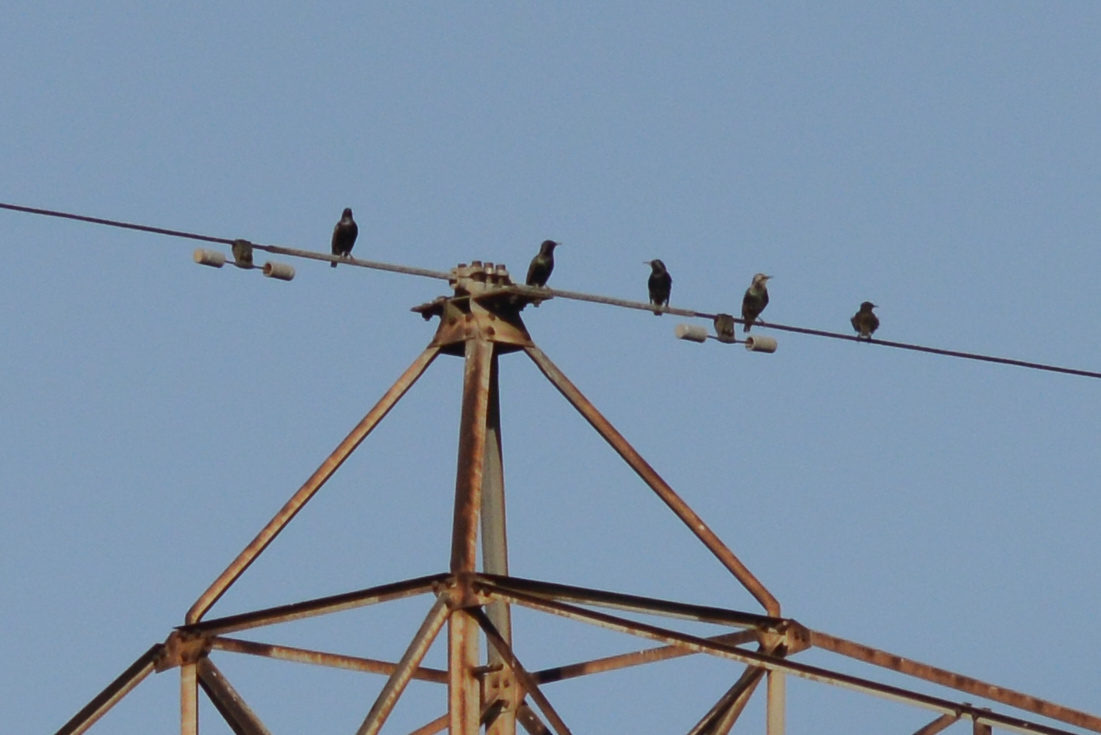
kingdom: Animalia
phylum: Chordata
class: Aves
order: Passeriformes
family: Sturnidae
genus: Sturnus
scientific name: Sturnus vulgaris
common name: Common starling
